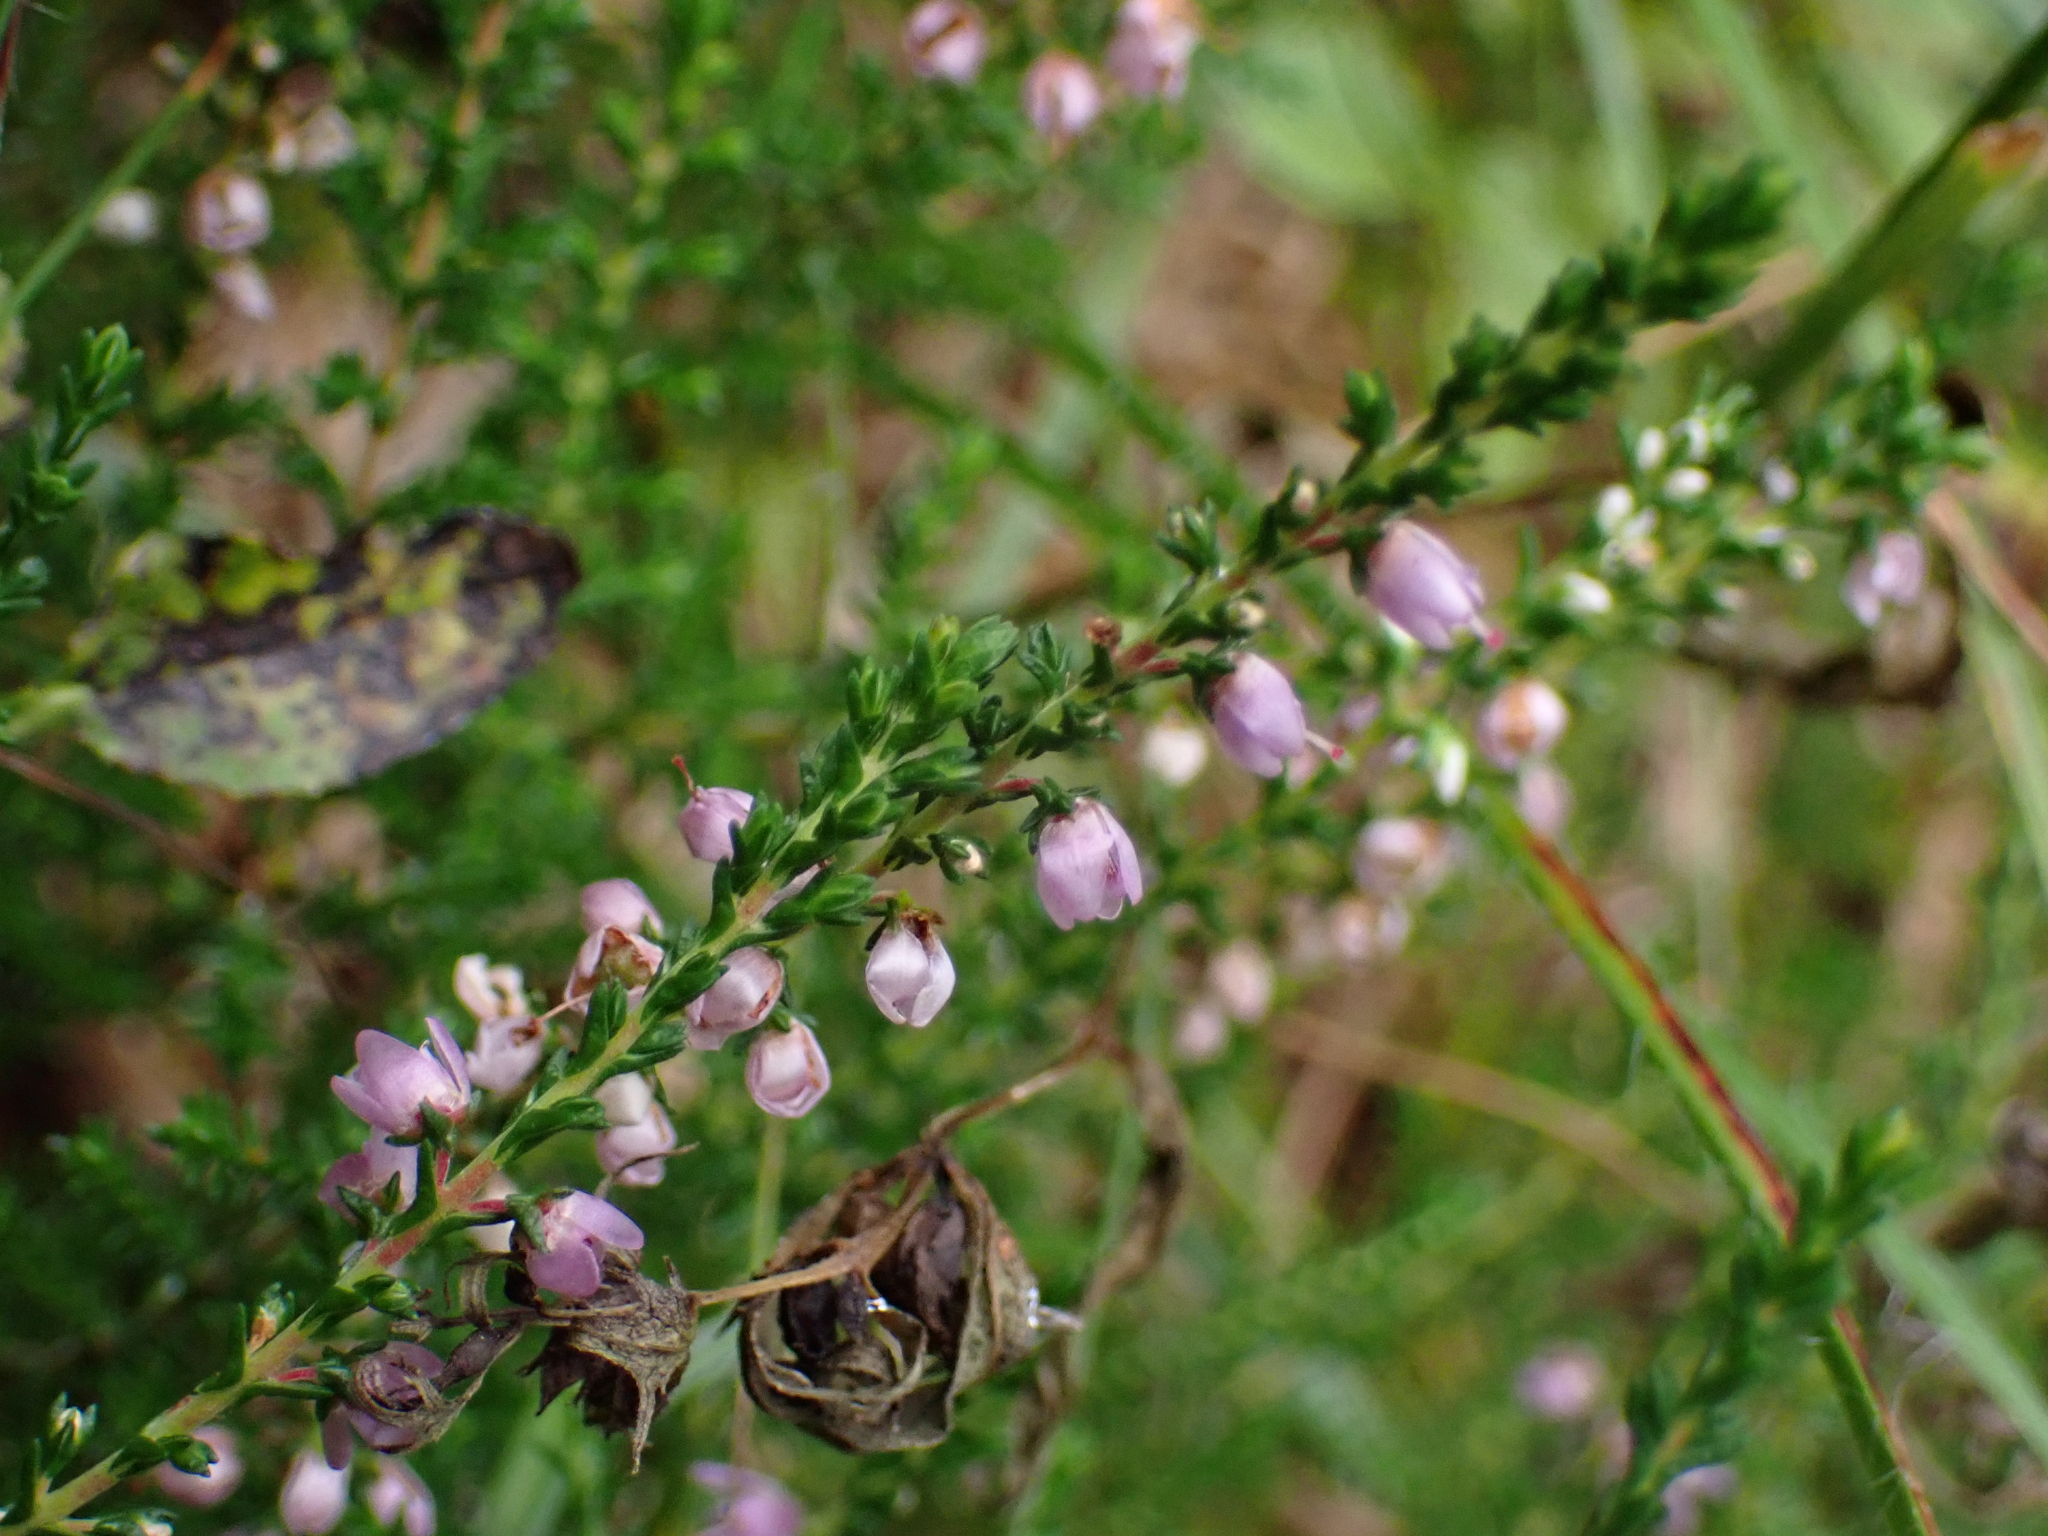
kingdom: Plantae
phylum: Tracheophyta
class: Magnoliopsida
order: Ericales
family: Ericaceae
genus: Calluna
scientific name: Calluna vulgaris
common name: Heather
